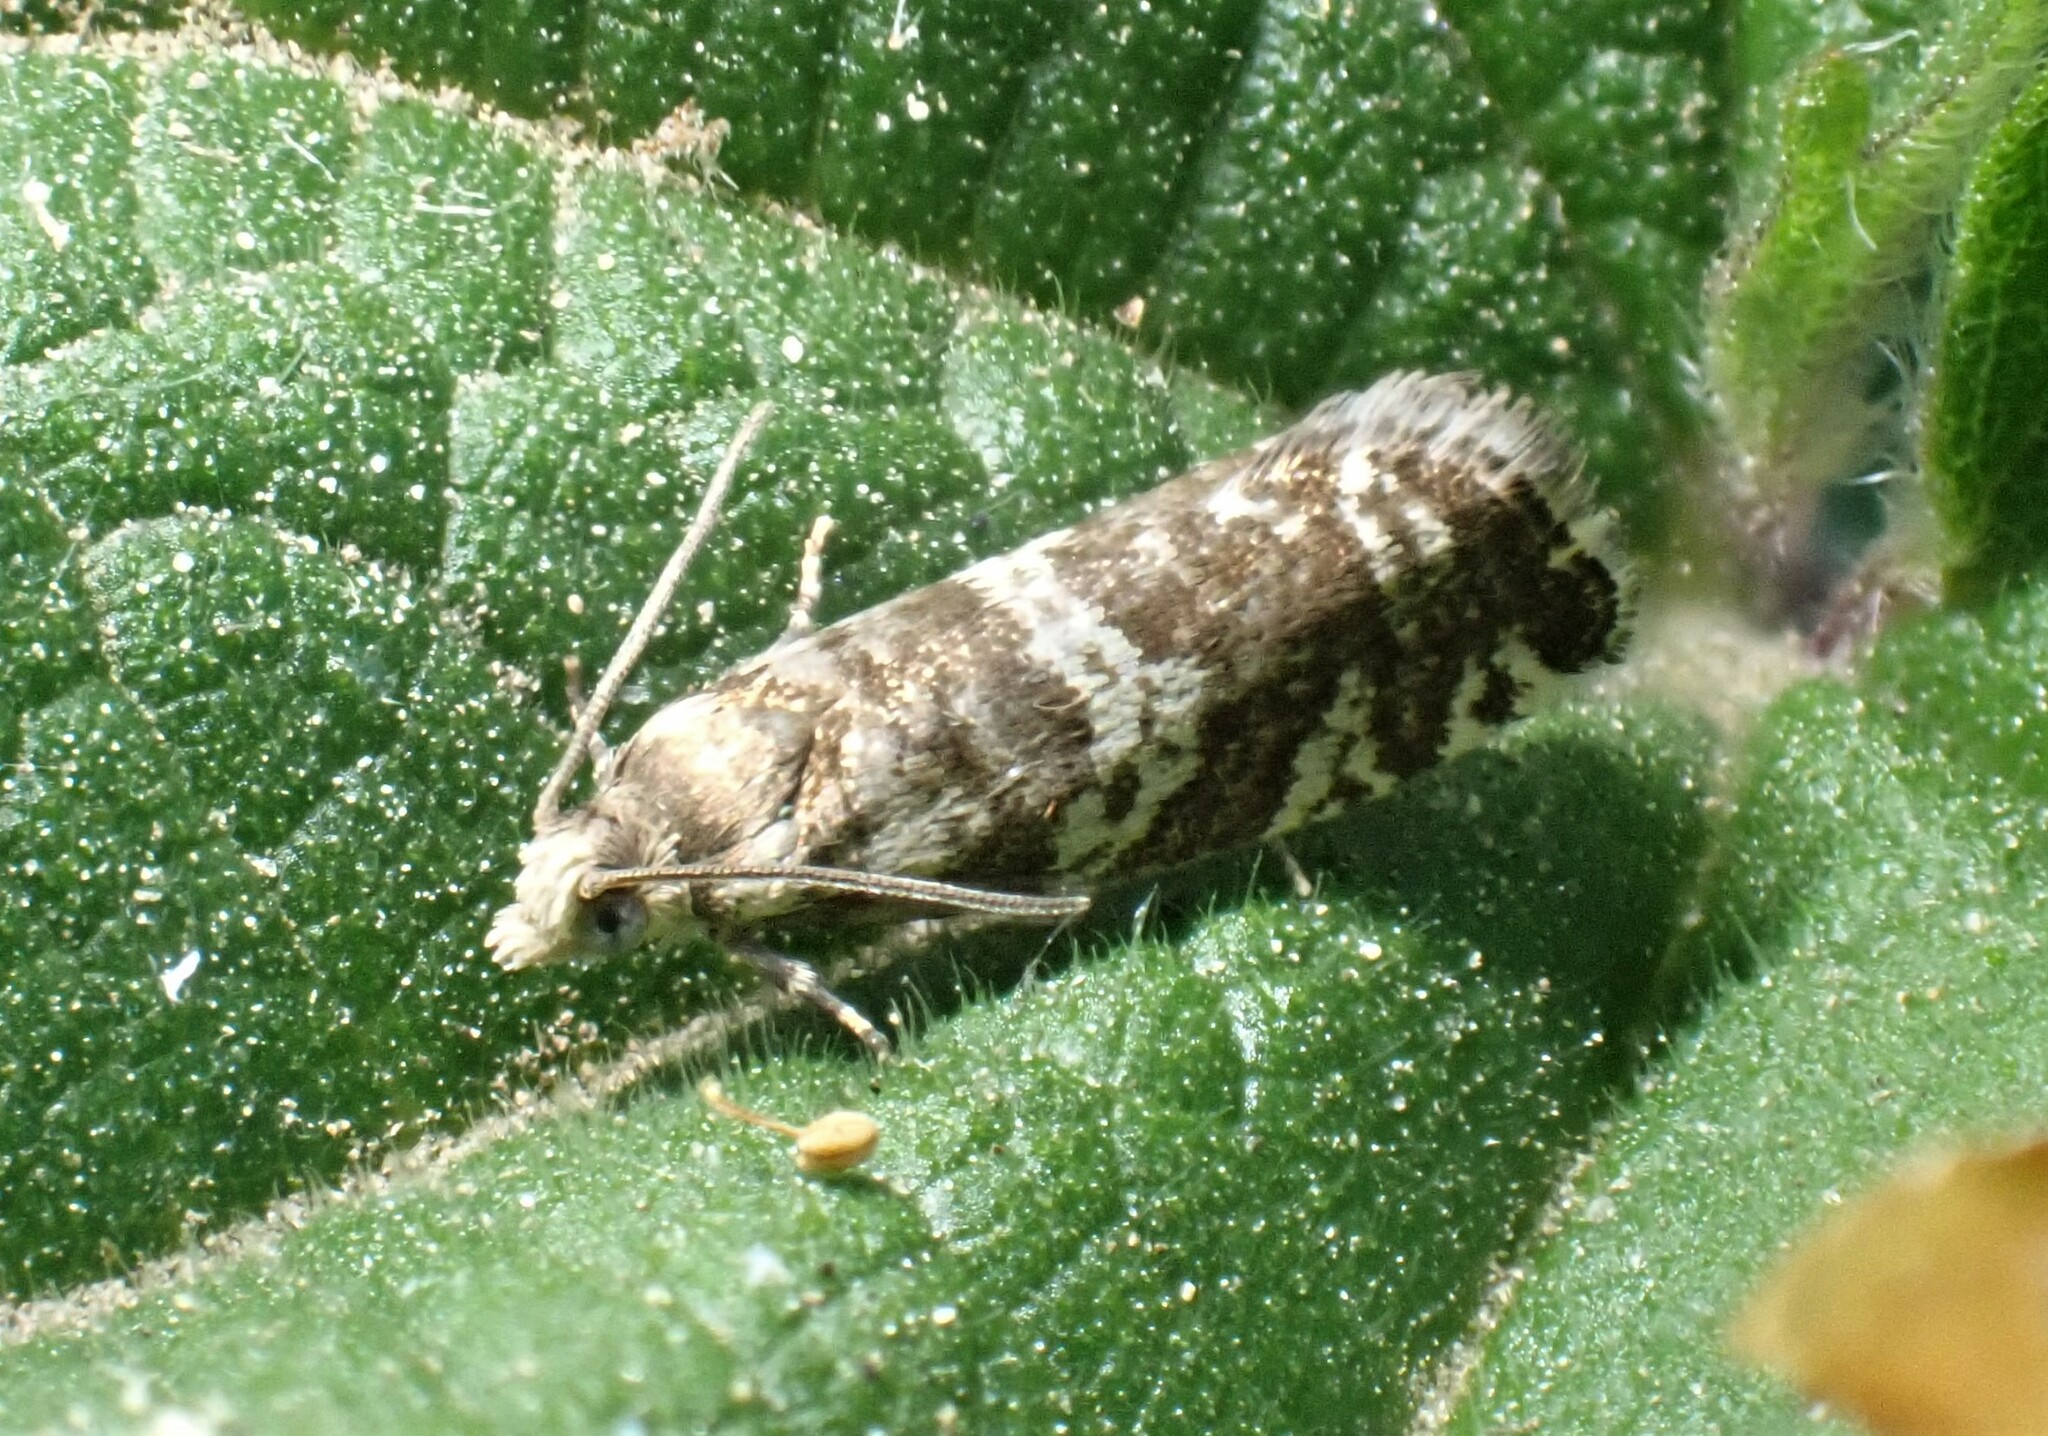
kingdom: Animalia
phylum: Arthropoda
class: Insecta
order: Lepidoptera
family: Tortricidae
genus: Epinotia
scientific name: Epinotia tedella
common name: Common spruce bell
